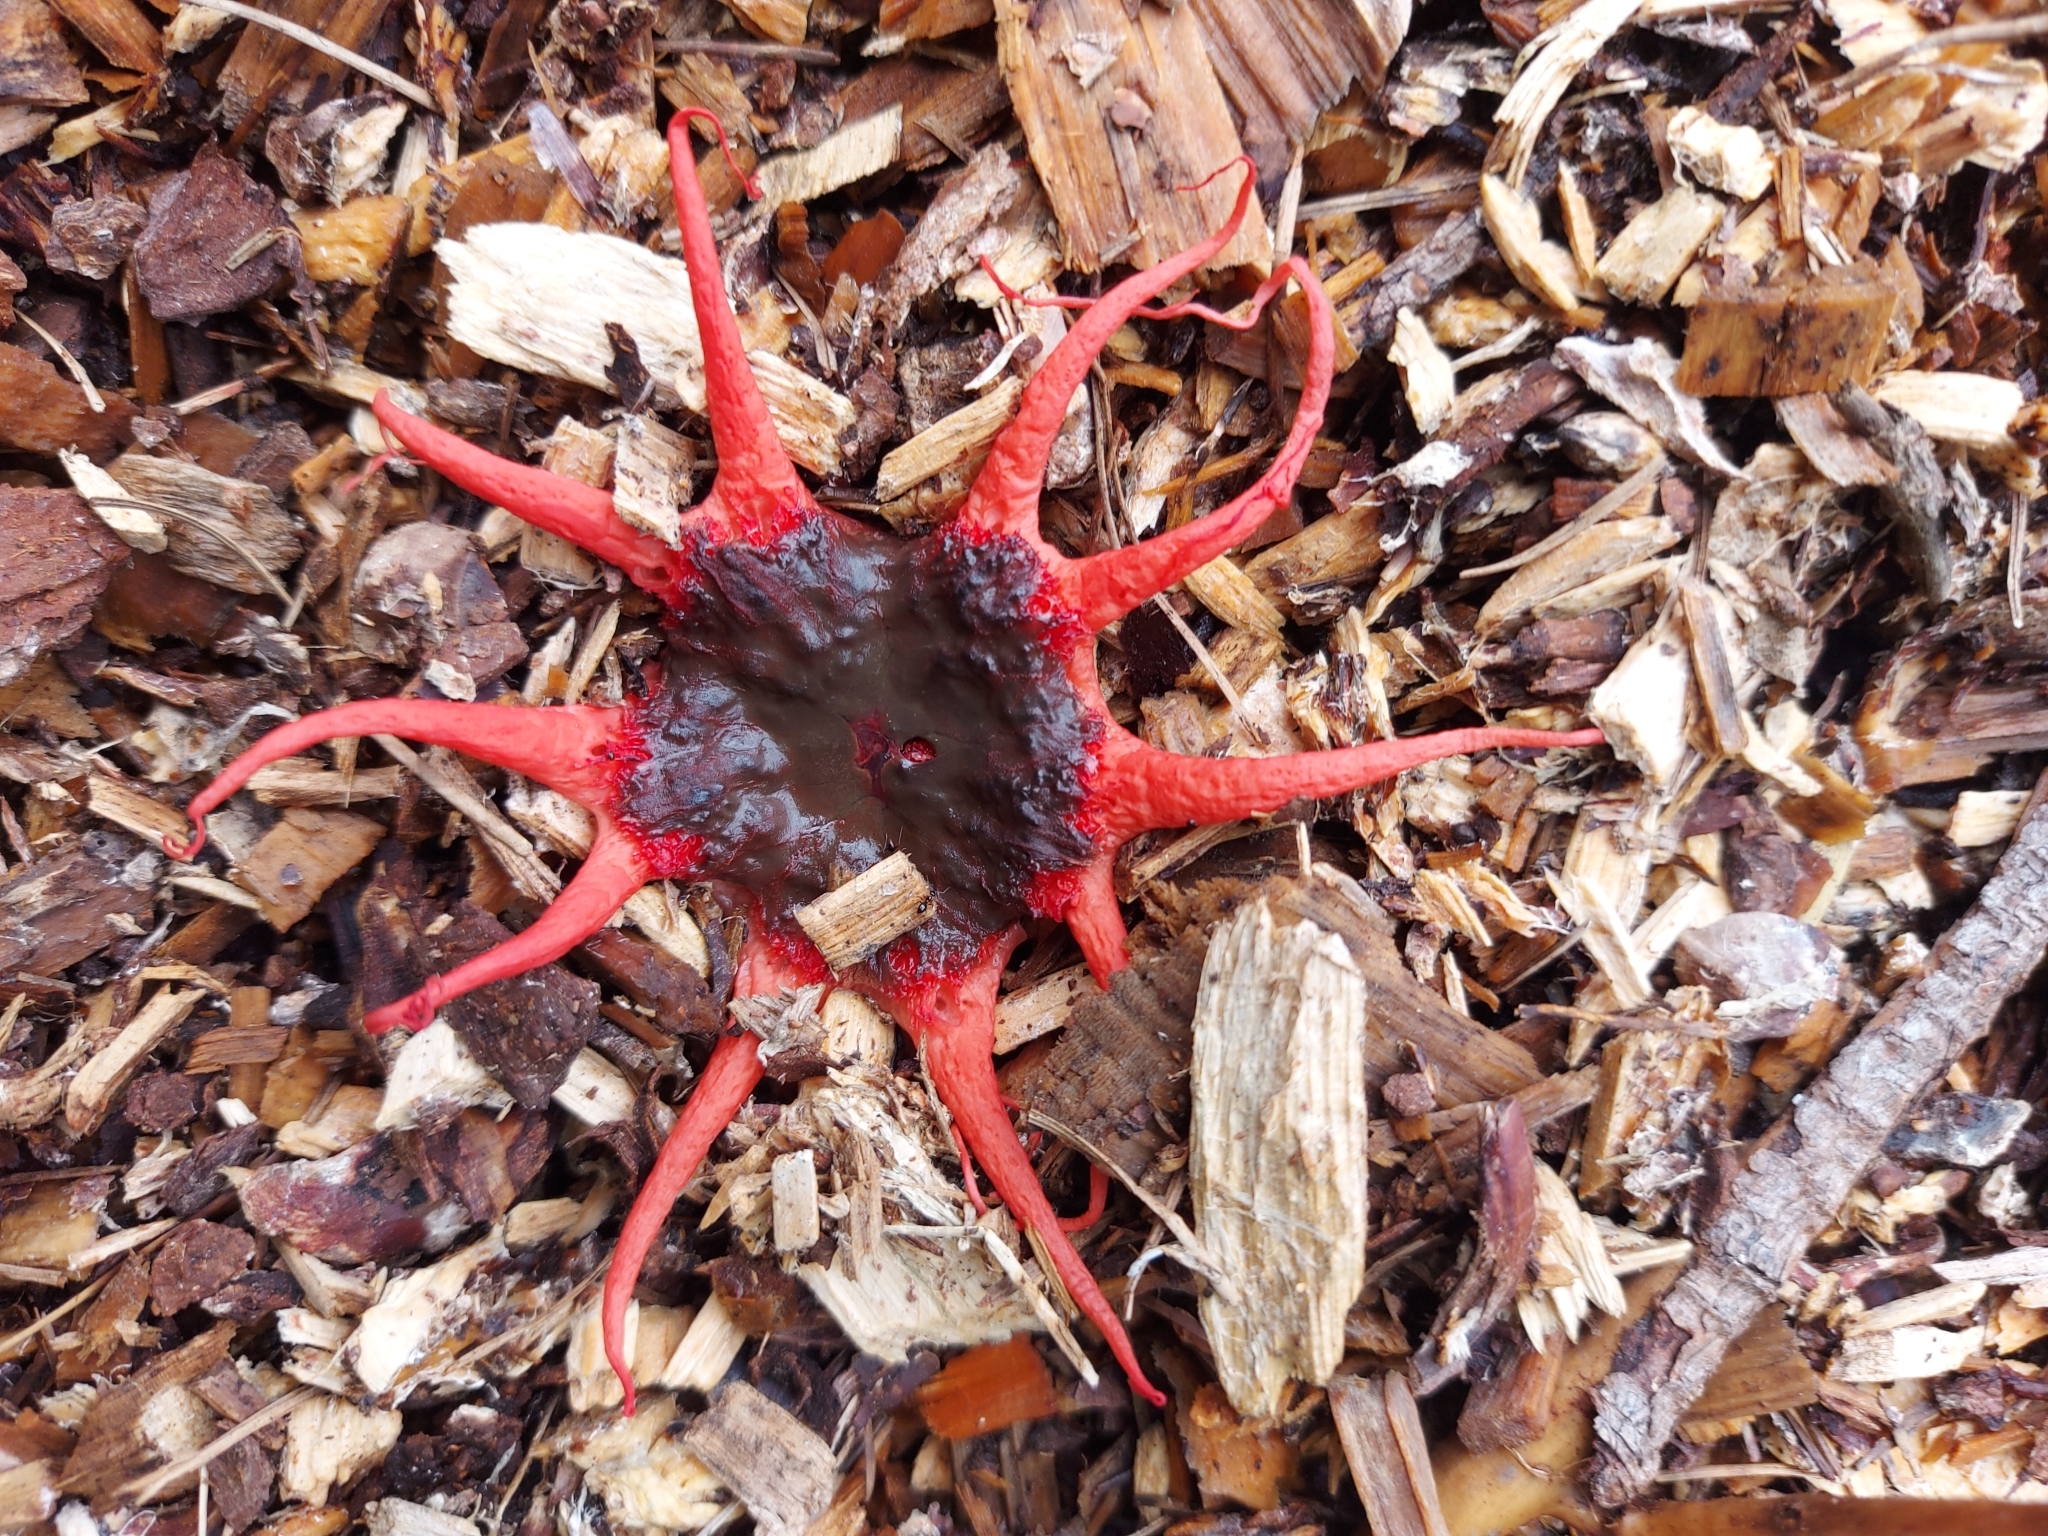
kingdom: Fungi
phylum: Basidiomycota
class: Agaricomycetes
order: Phallales
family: Phallaceae
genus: Aseroe
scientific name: Aseroe rubra
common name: Starfish fungus
